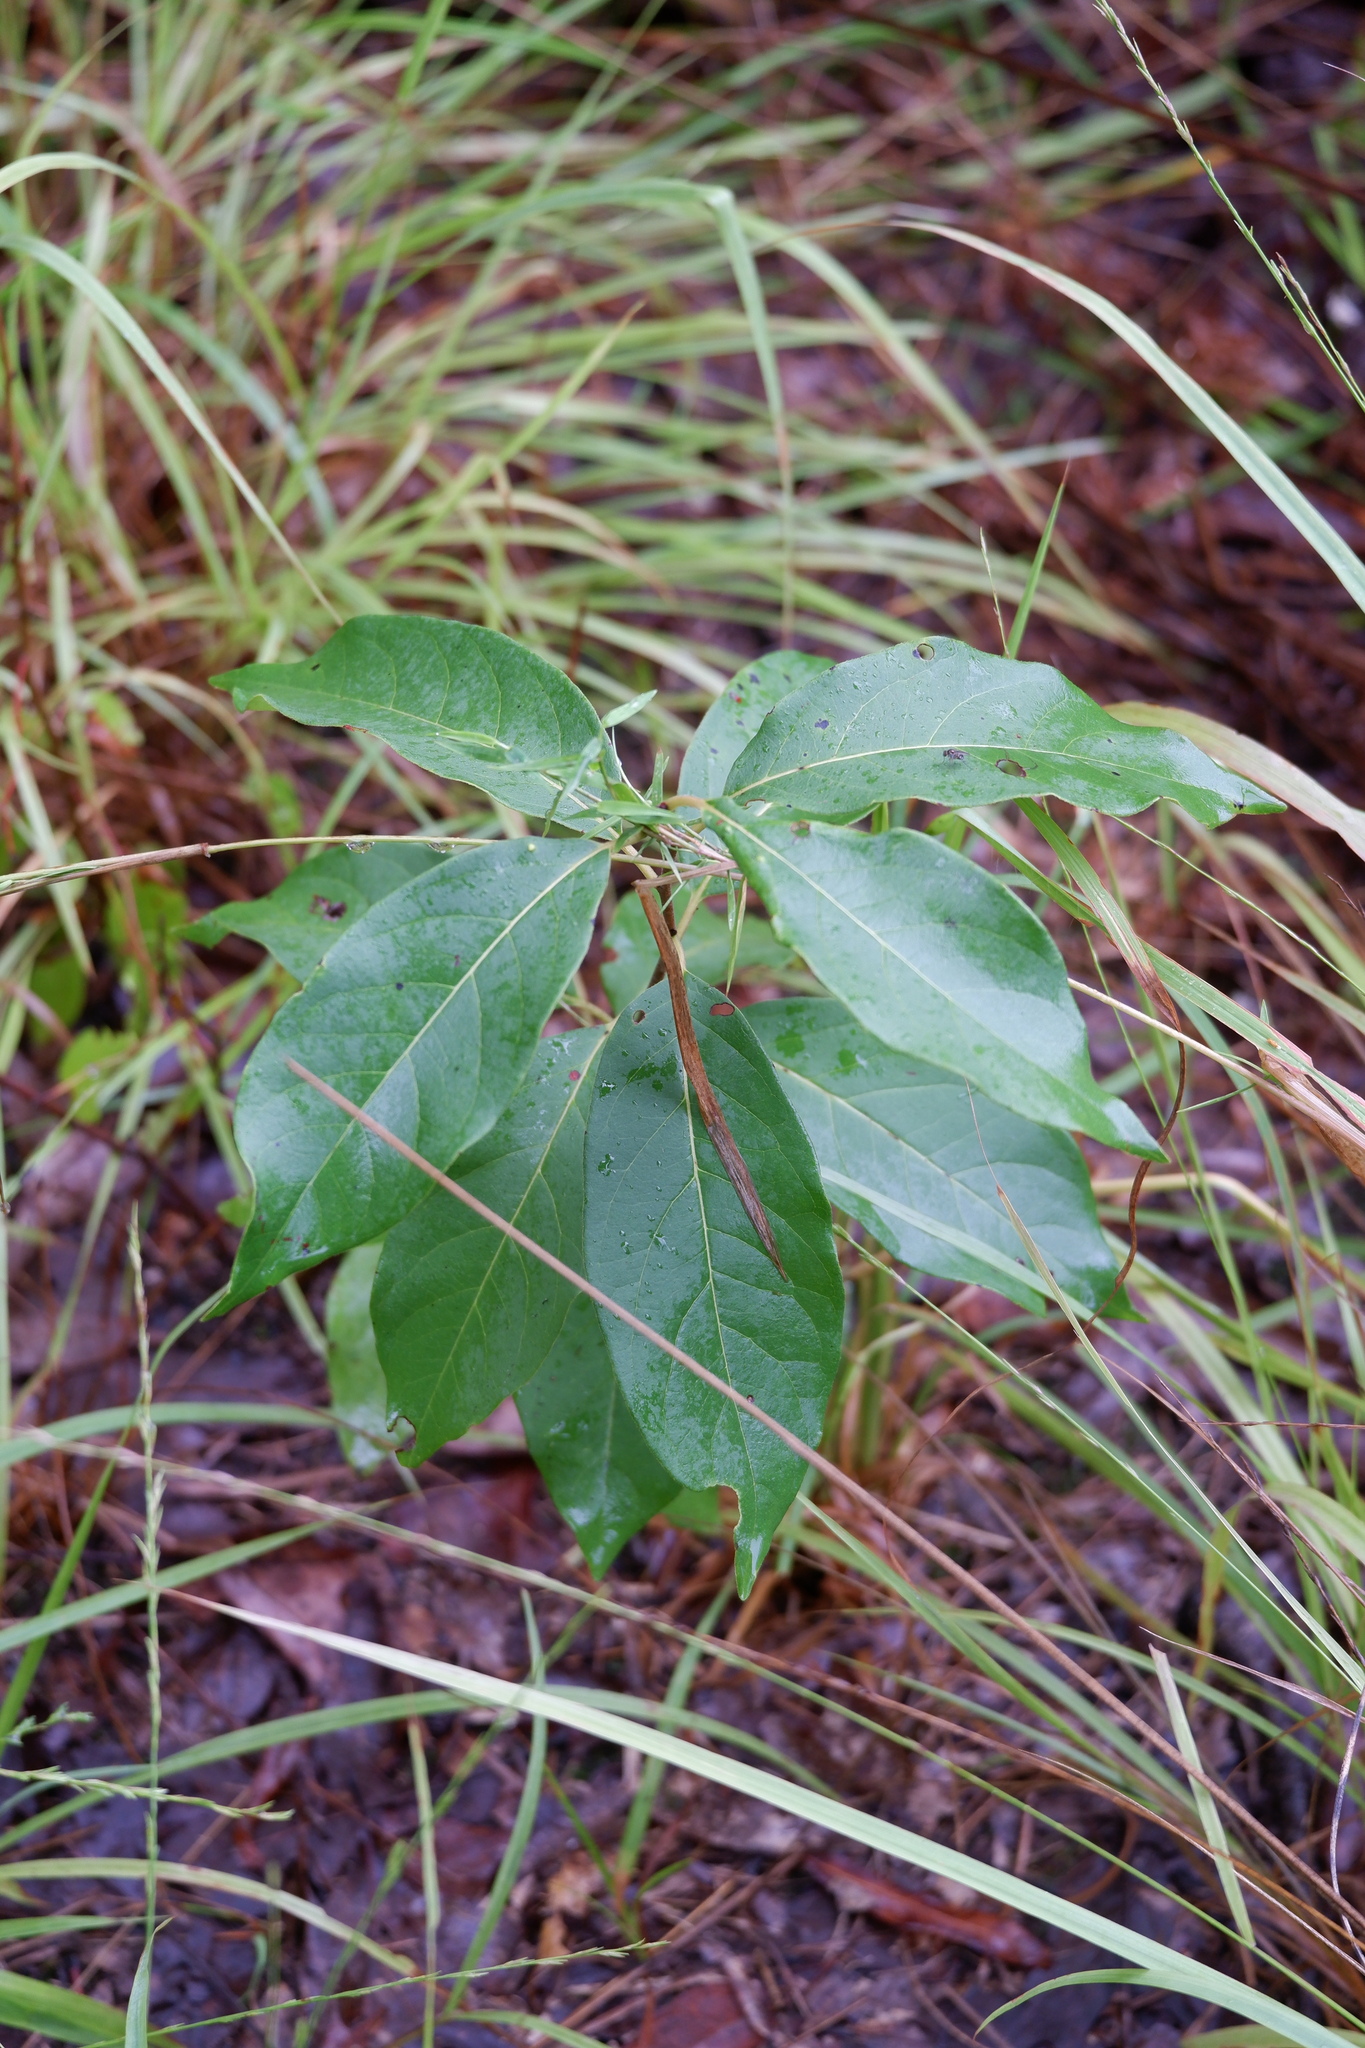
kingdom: Plantae
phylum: Tracheophyta
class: Magnoliopsida
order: Ericales
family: Ebenaceae
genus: Diospyros
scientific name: Diospyros virginiana
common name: Persimmon
